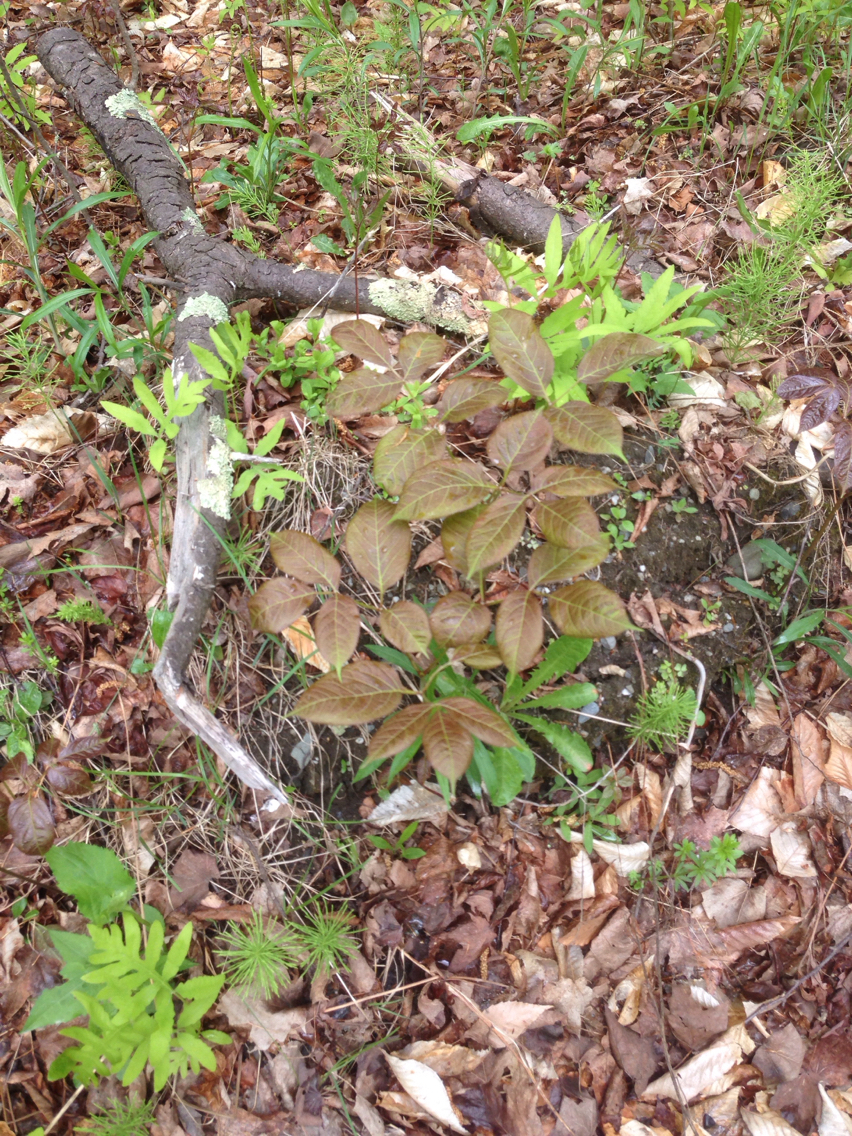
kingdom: Plantae
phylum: Tracheophyta
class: Magnoliopsida
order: Apiales
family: Araliaceae
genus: Aralia
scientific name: Aralia nudicaulis
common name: Wild sarsaparilla
